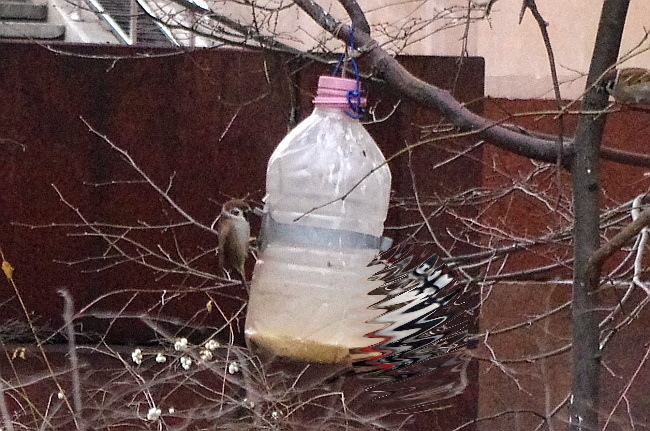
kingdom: Animalia
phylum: Chordata
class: Aves
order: Passeriformes
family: Passeridae
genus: Passer
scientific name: Passer montanus
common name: Eurasian tree sparrow
